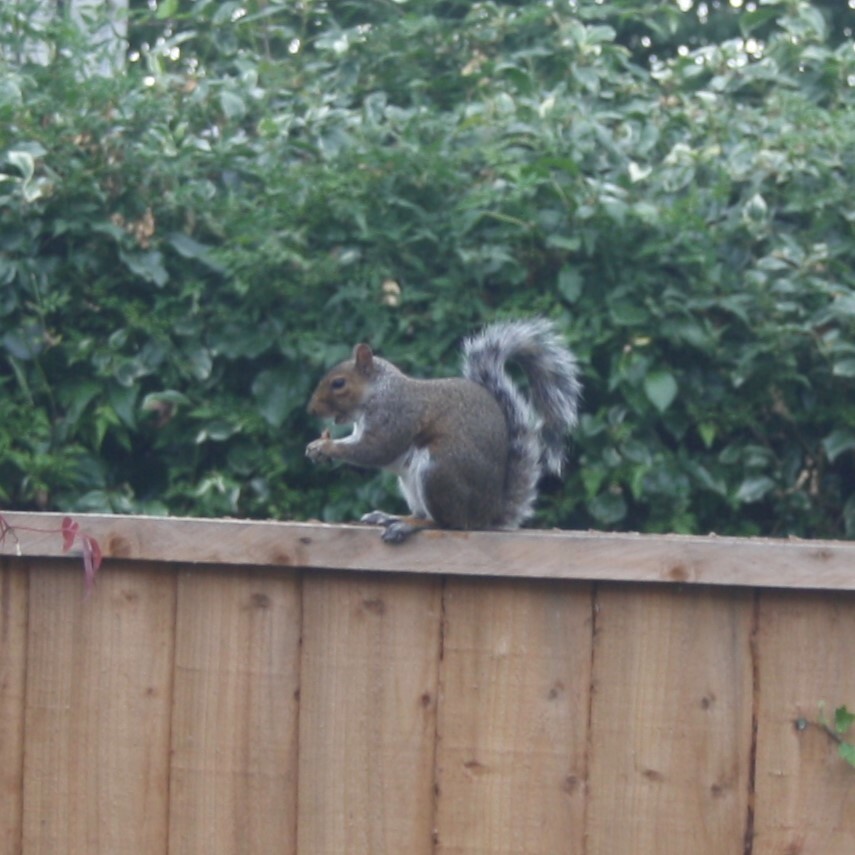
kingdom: Animalia
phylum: Chordata
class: Mammalia
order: Rodentia
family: Sciuridae
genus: Sciurus
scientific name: Sciurus carolinensis
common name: Eastern gray squirrel
